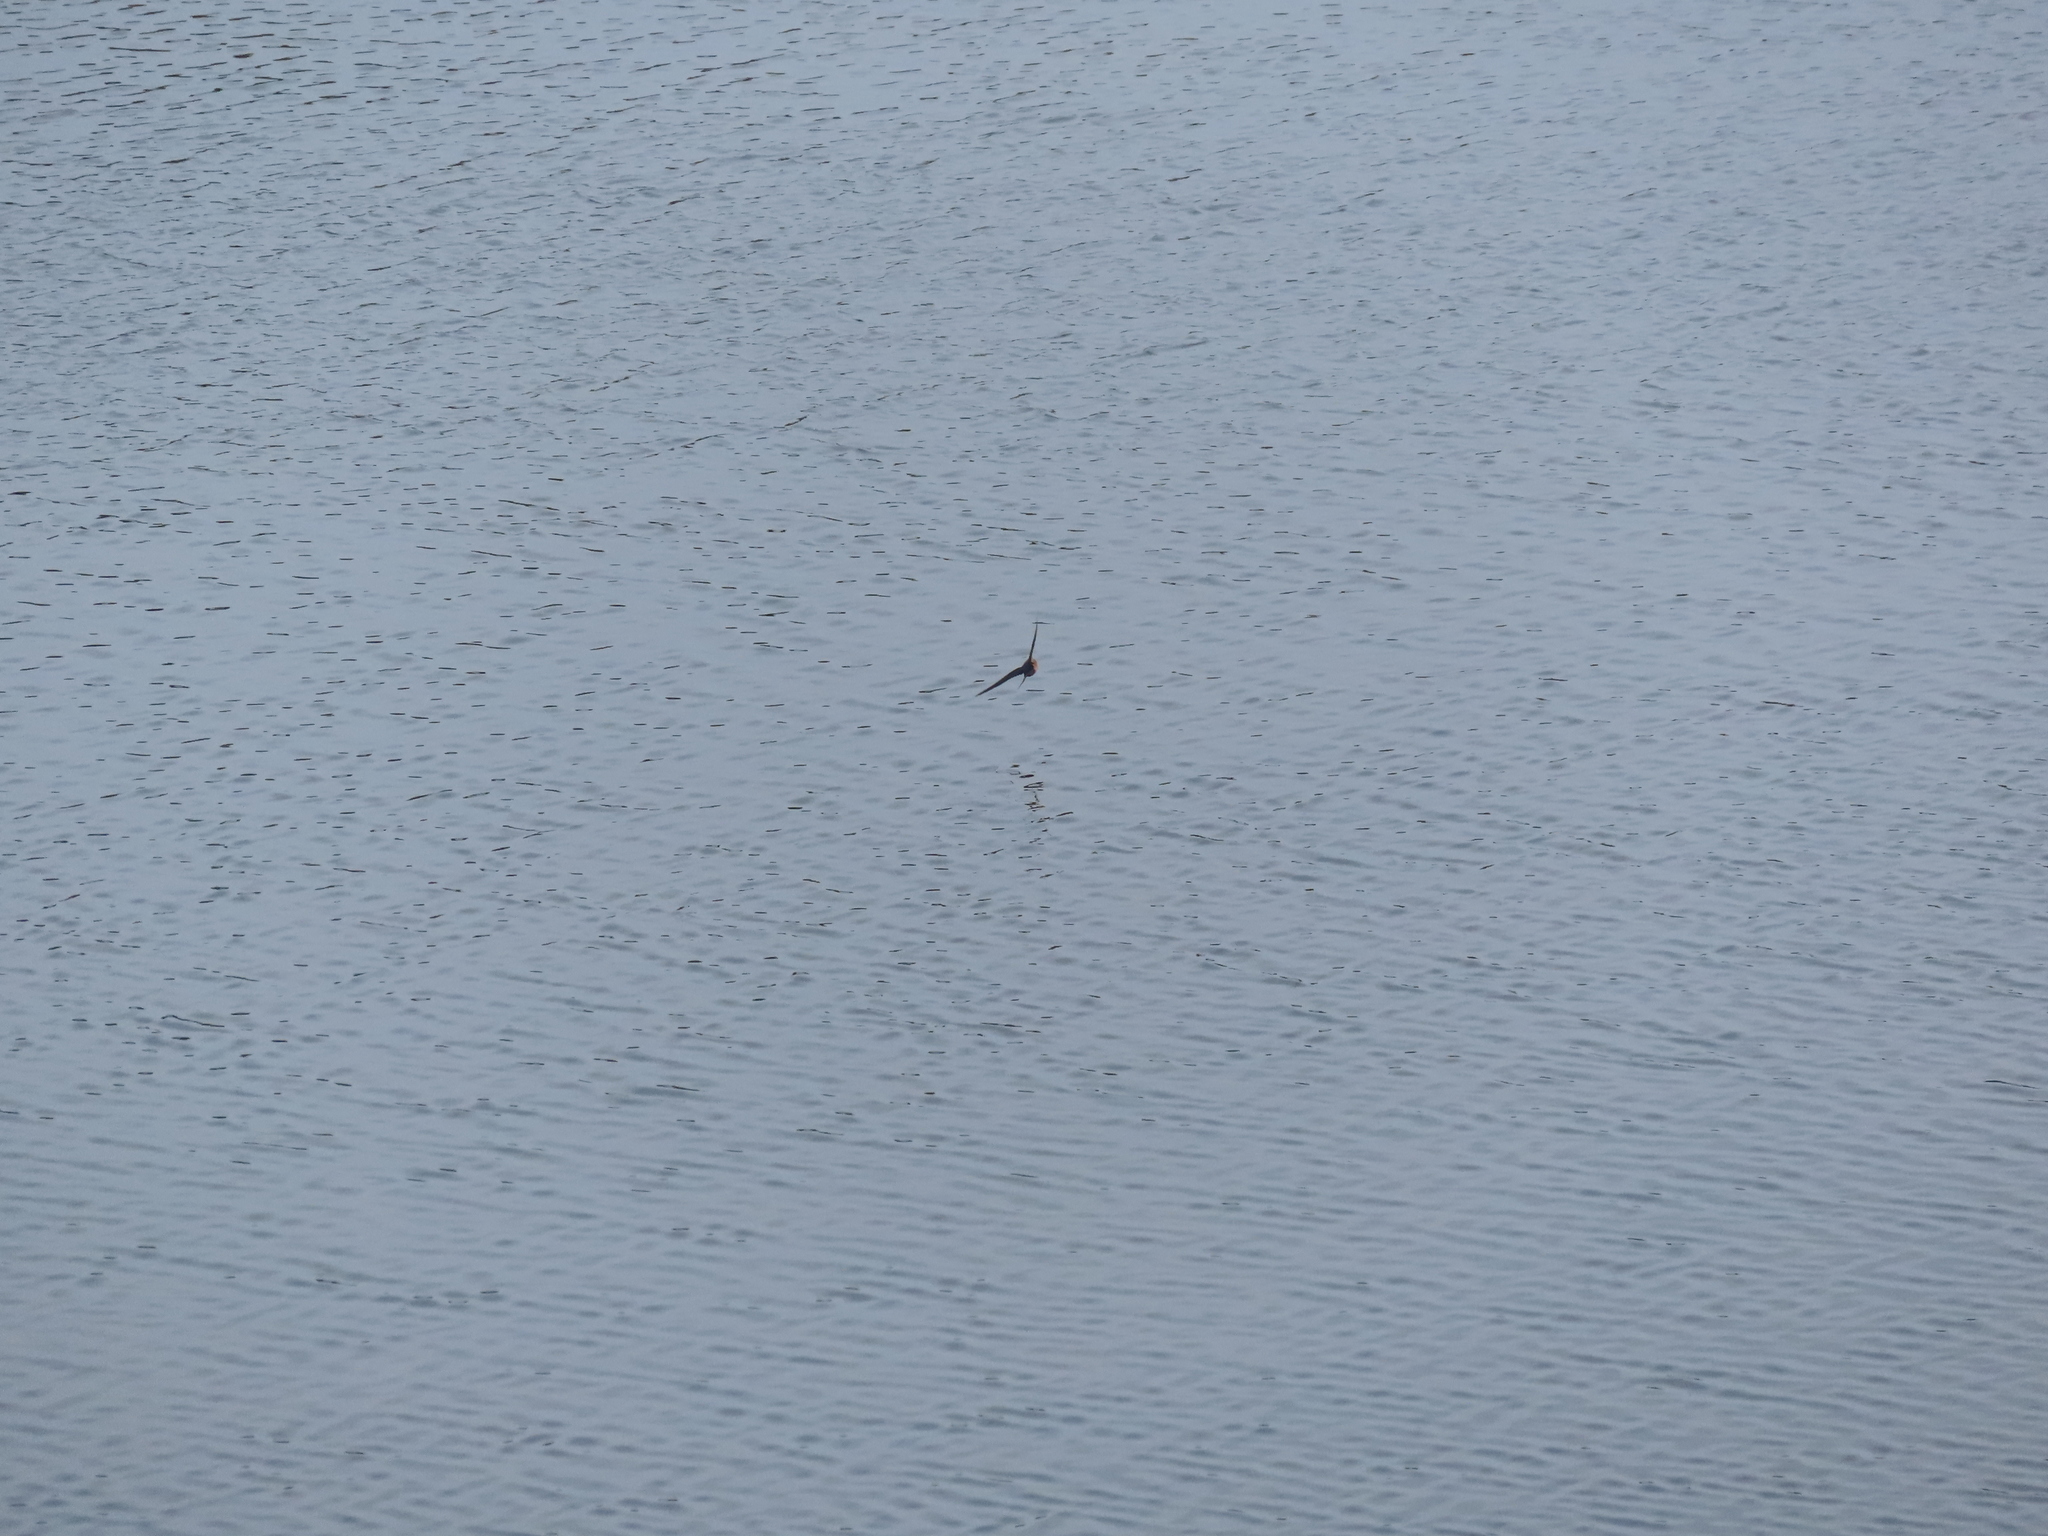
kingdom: Animalia
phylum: Chordata
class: Aves
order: Passeriformes
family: Hirundinidae
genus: Hirundo
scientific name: Hirundo rustica
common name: Barn swallow
